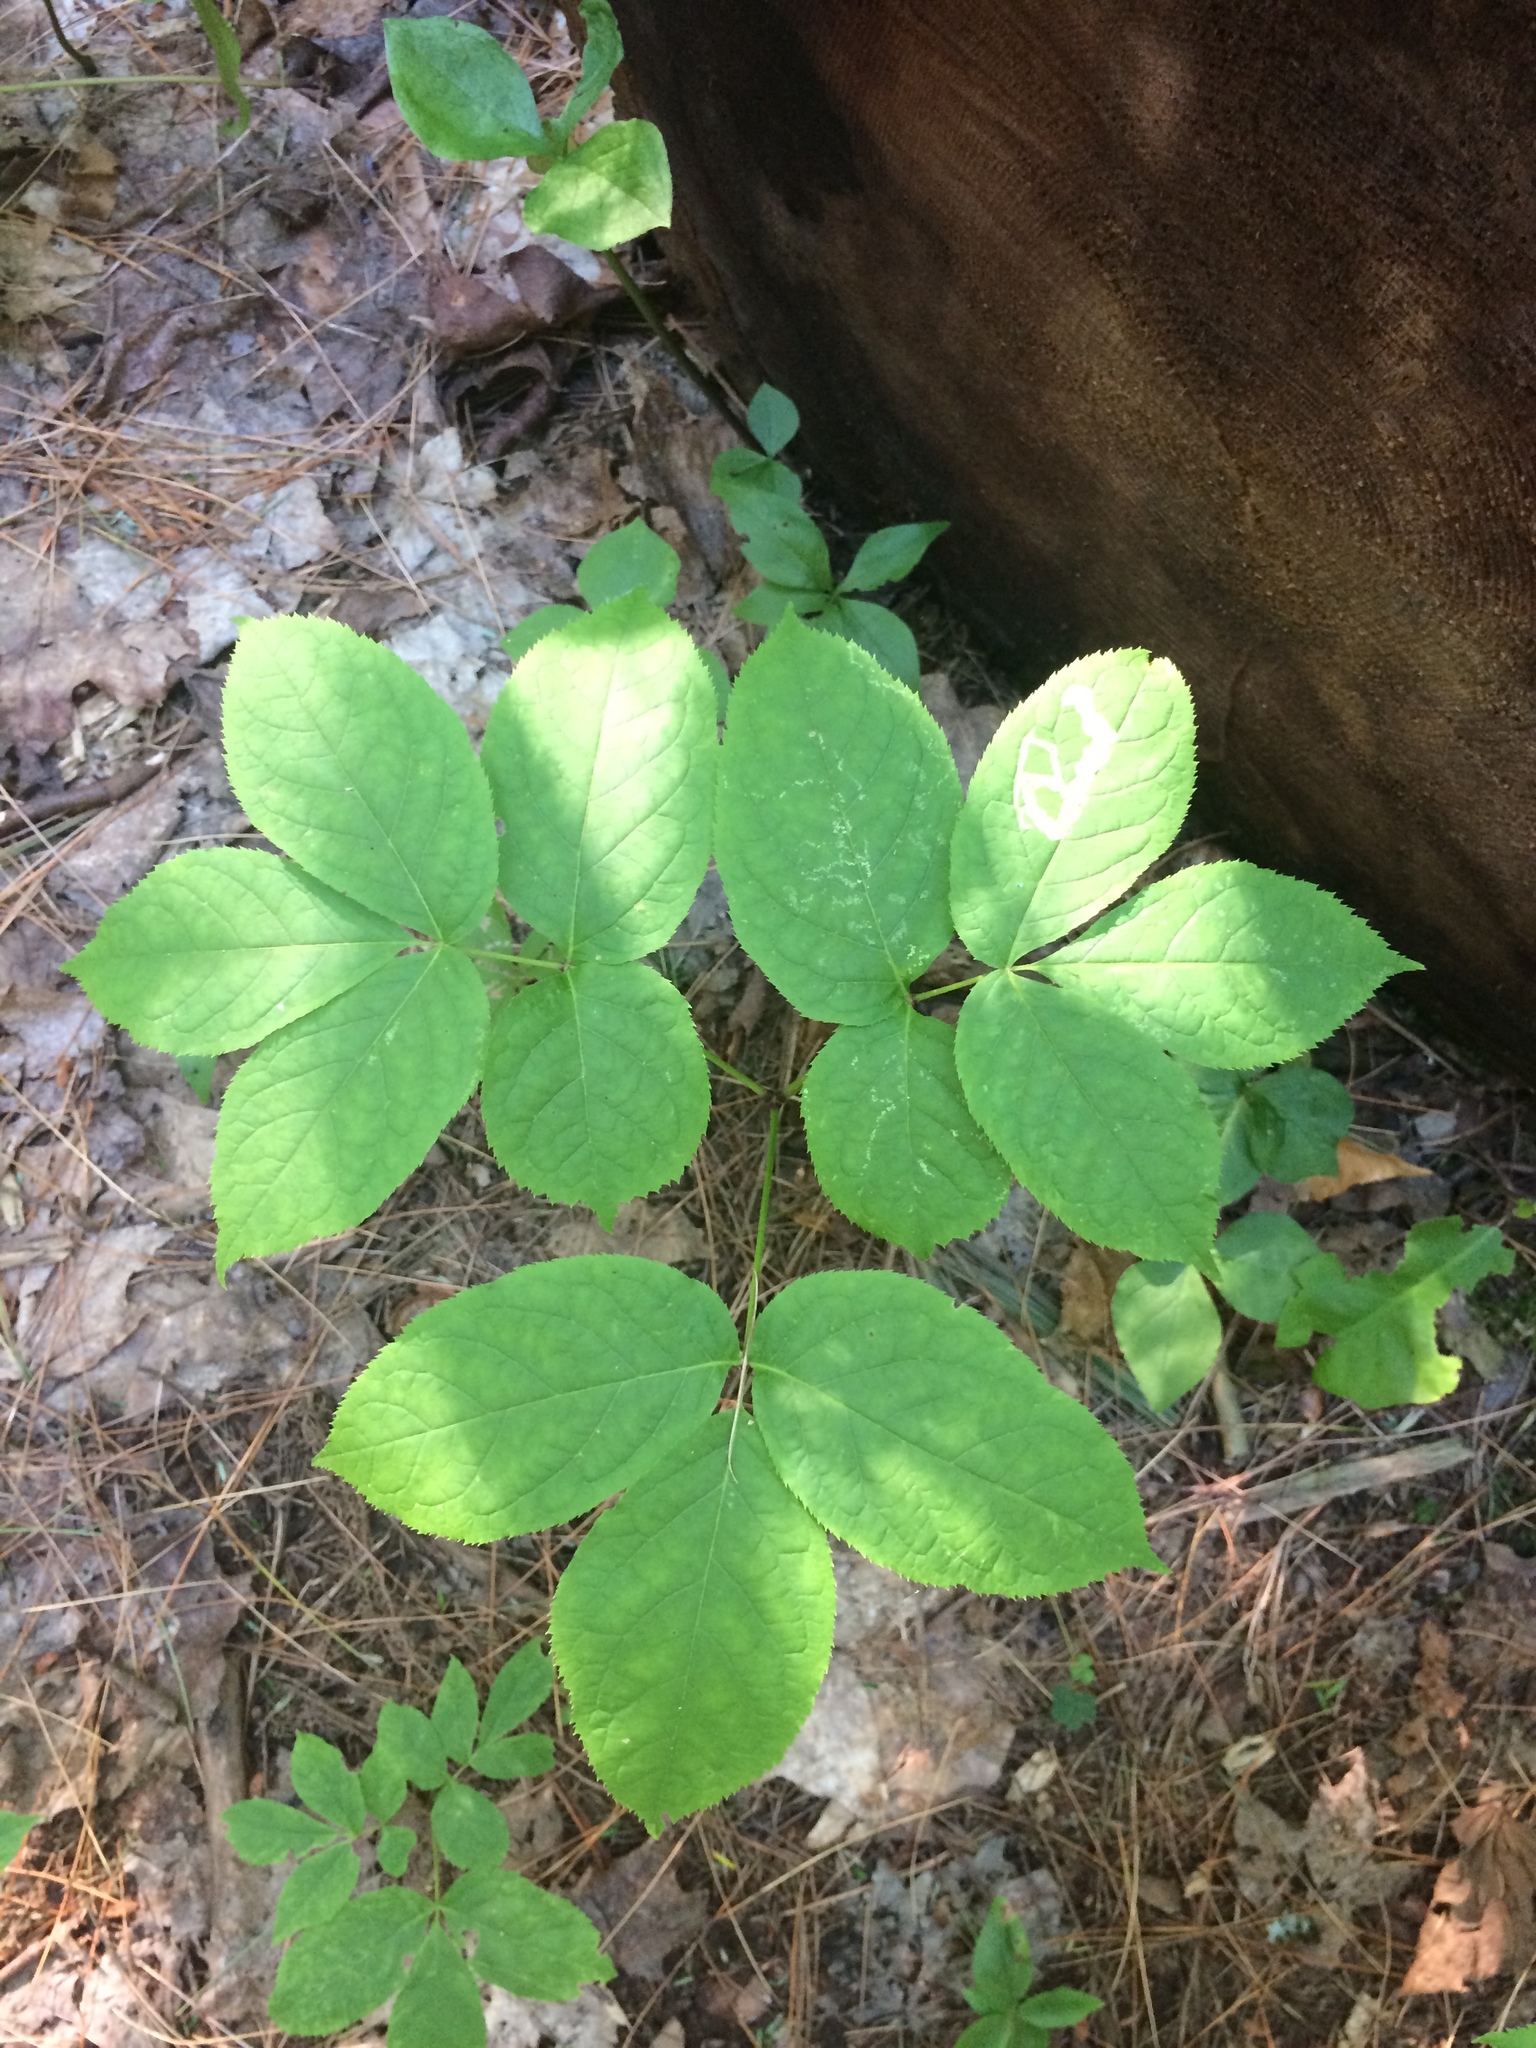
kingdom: Plantae
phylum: Tracheophyta
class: Magnoliopsida
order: Apiales
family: Araliaceae
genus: Aralia
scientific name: Aralia nudicaulis
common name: Wild sarsaparilla
